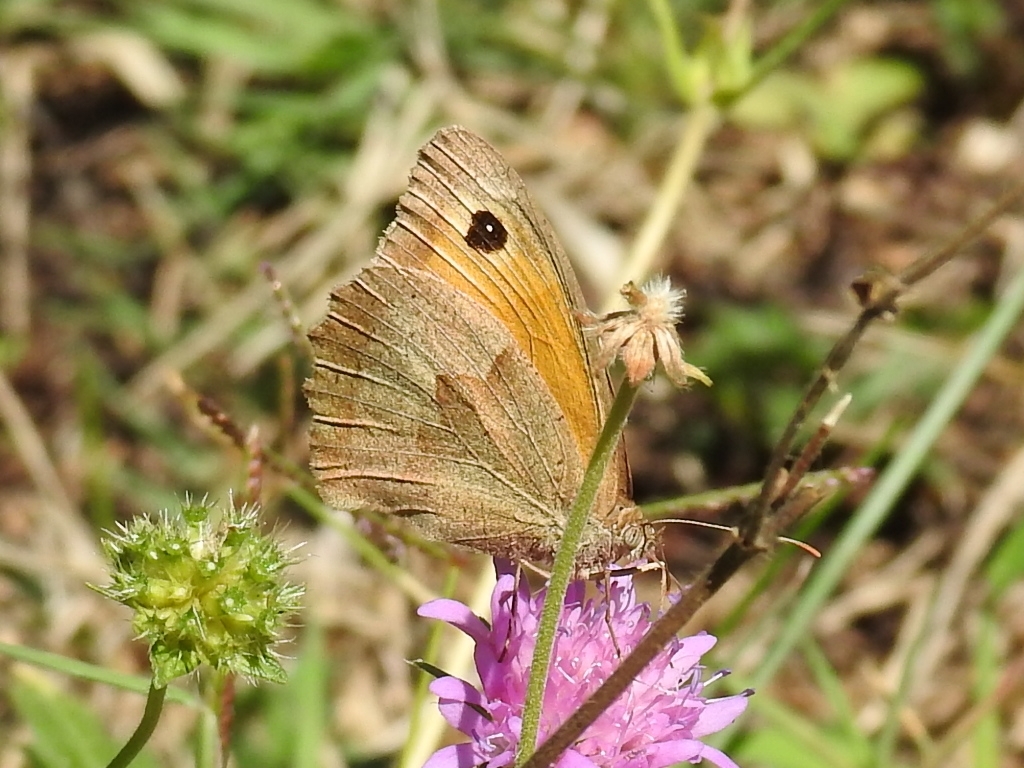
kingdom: Animalia
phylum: Arthropoda
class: Insecta
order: Lepidoptera
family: Nymphalidae
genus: Maniola
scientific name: Maniola jurtina
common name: Meadow brown
